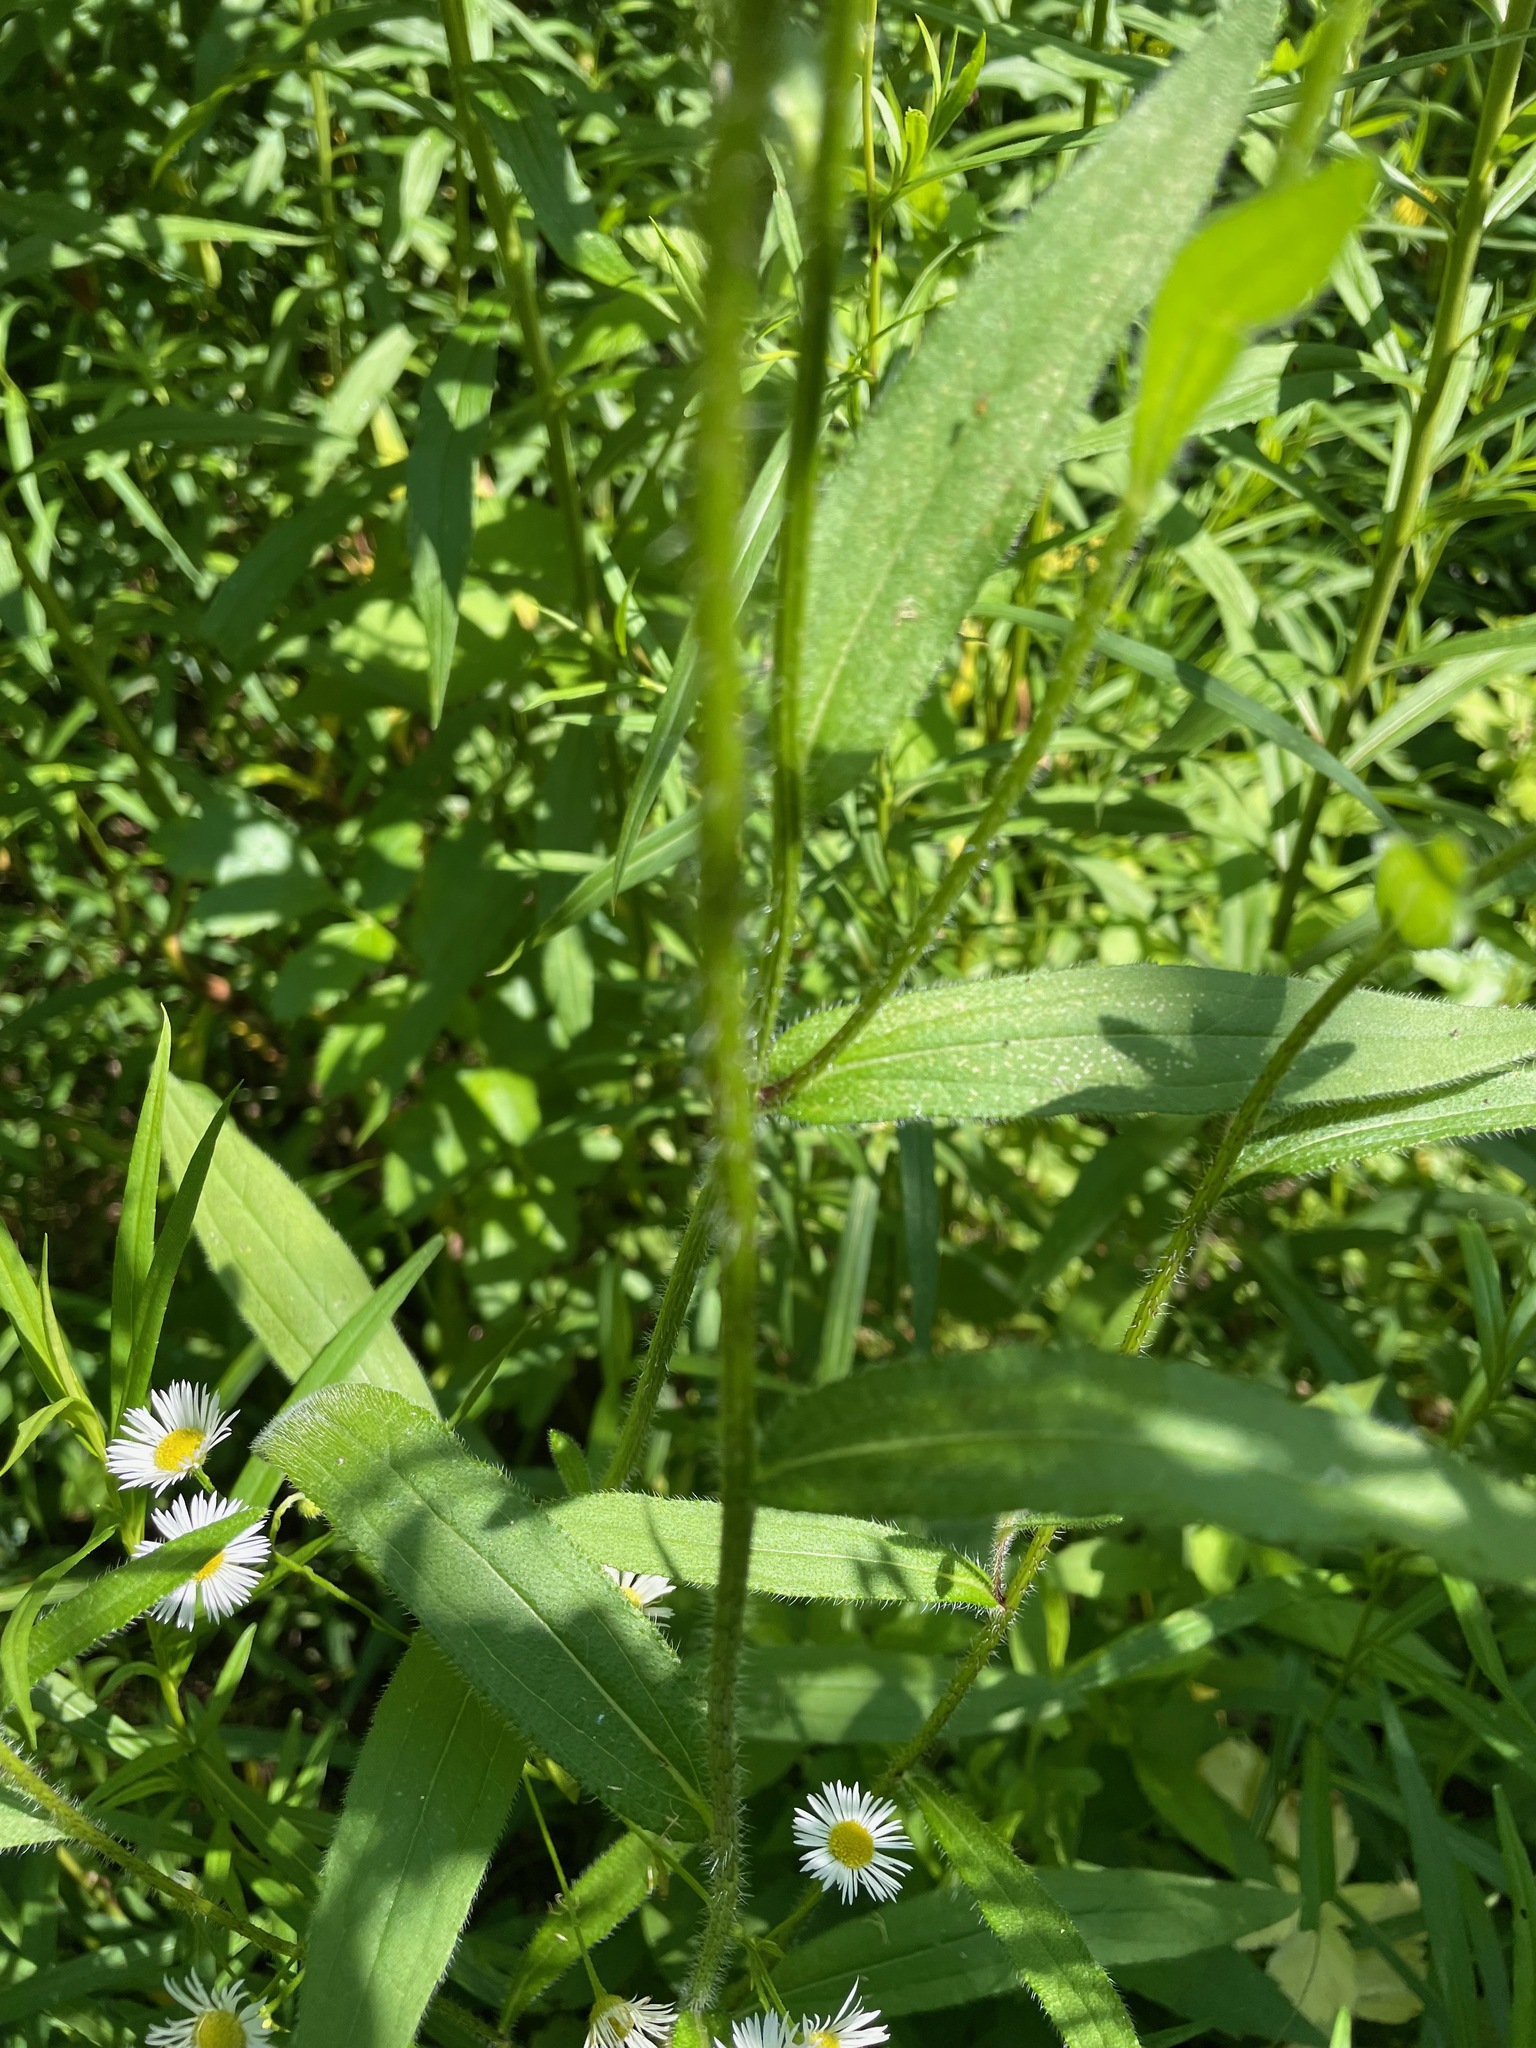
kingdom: Plantae
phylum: Tracheophyta
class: Magnoliopsida
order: Asterales
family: Asteraceae
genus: Rudbeckia
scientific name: Rudbeckia hirta
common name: Black-eyed-susan
